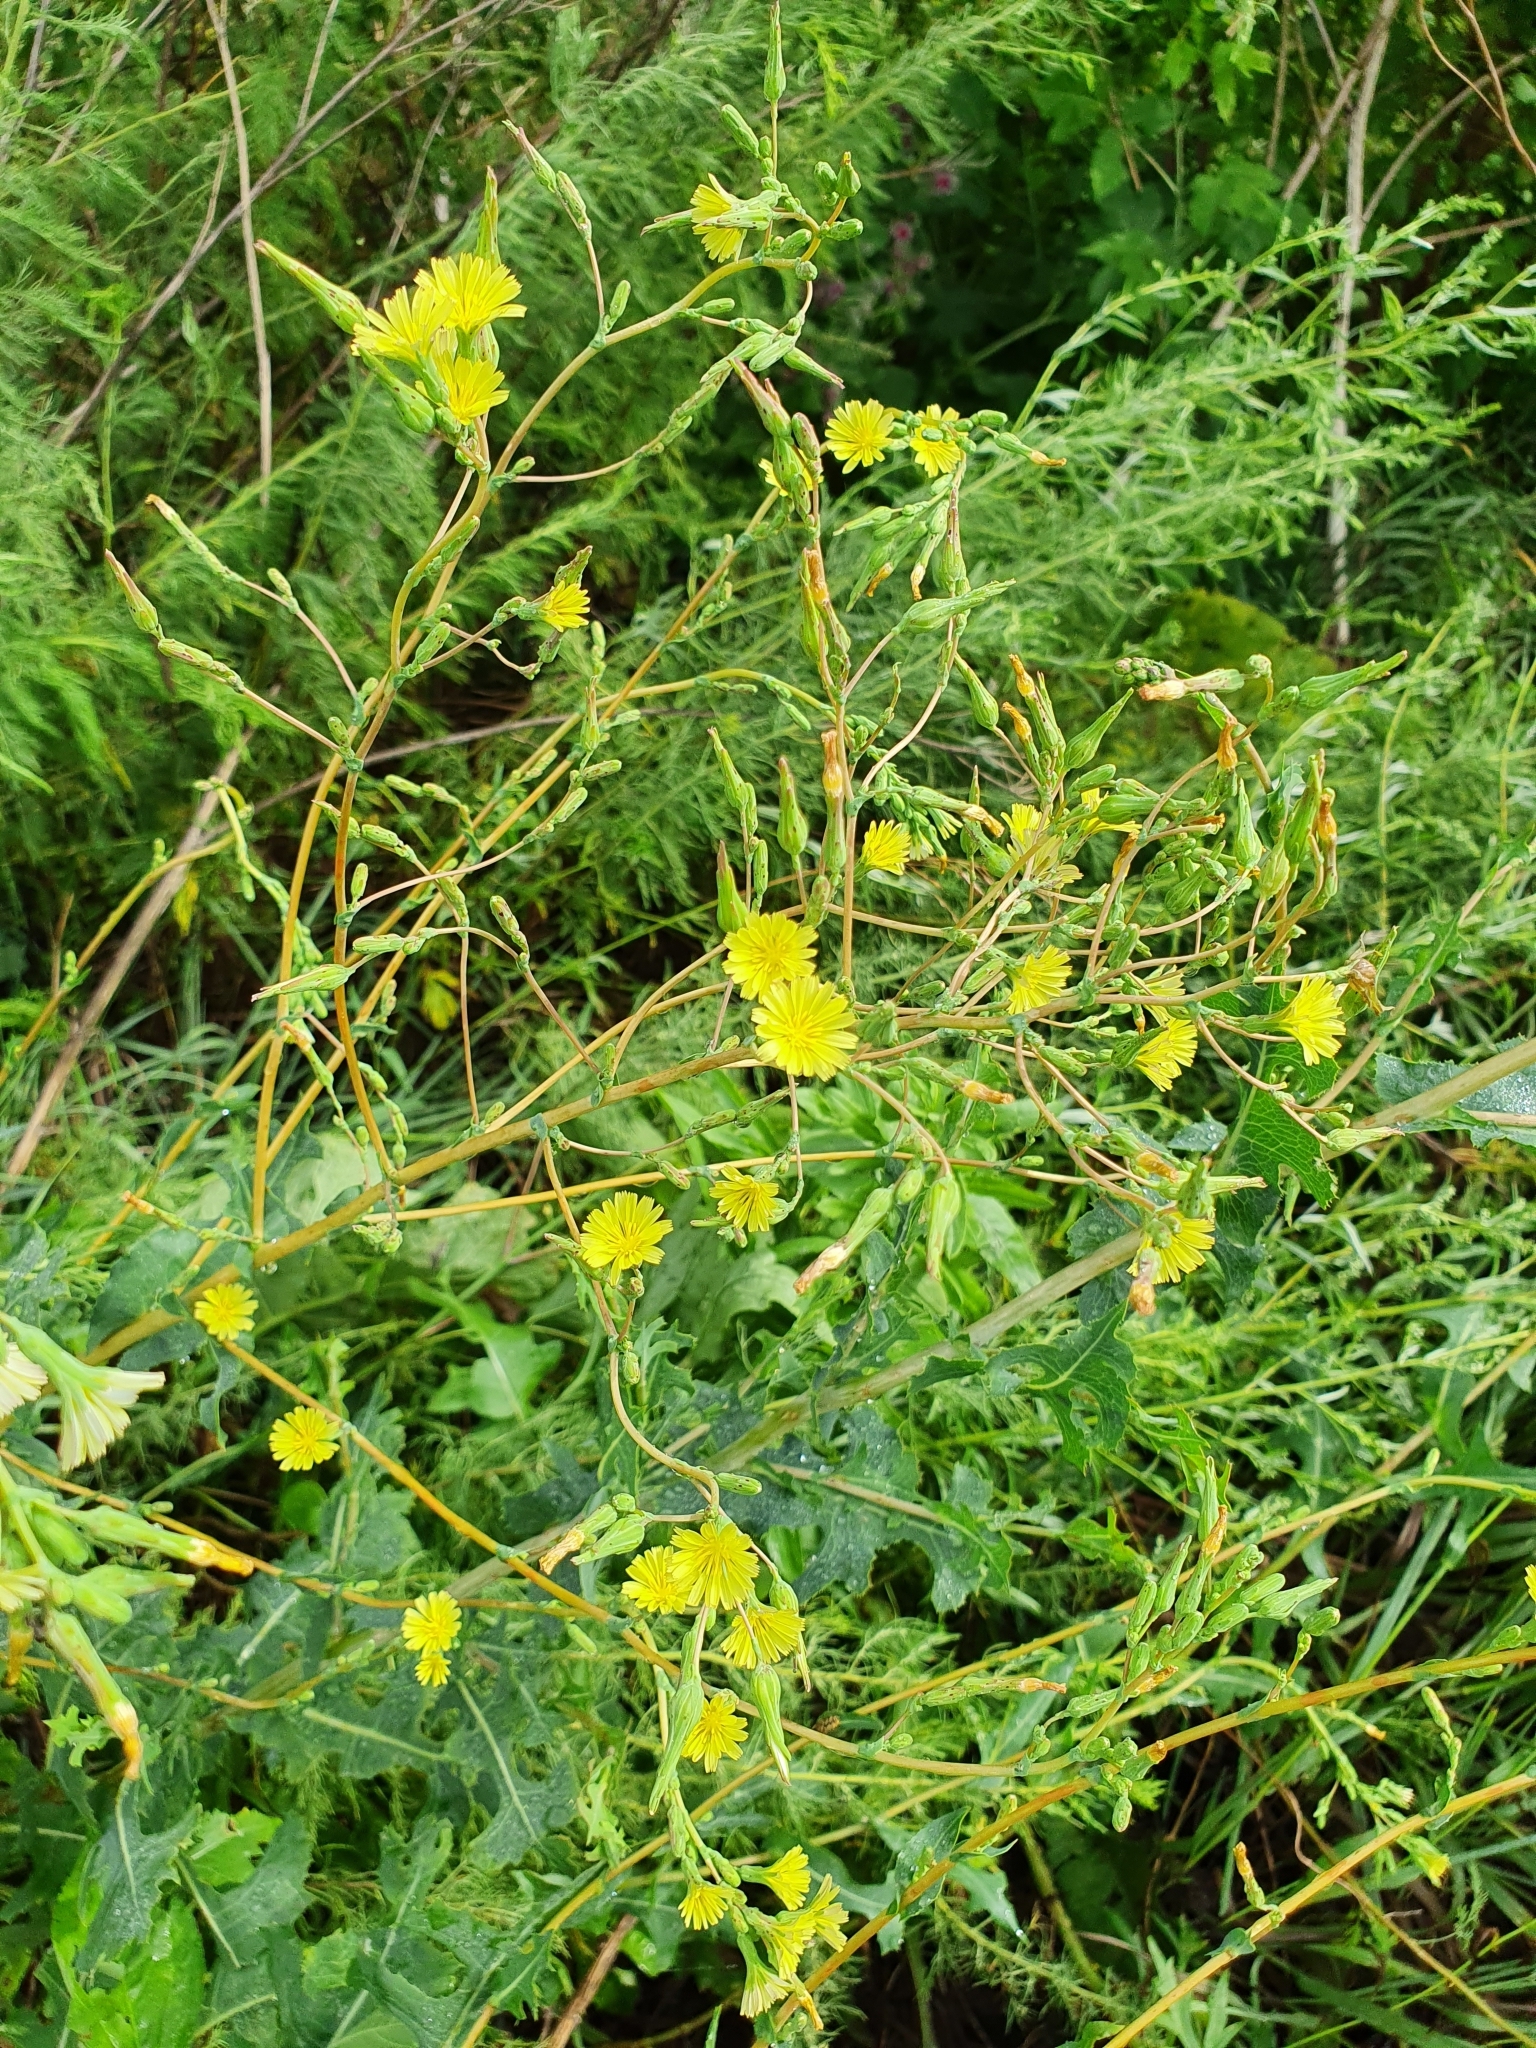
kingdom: Plantae
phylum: Tracheophyta
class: Magnoliopsida
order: Asterales
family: Asteraceae
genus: Lactuca
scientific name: Lactuca serriola
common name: Prickly lettuce
